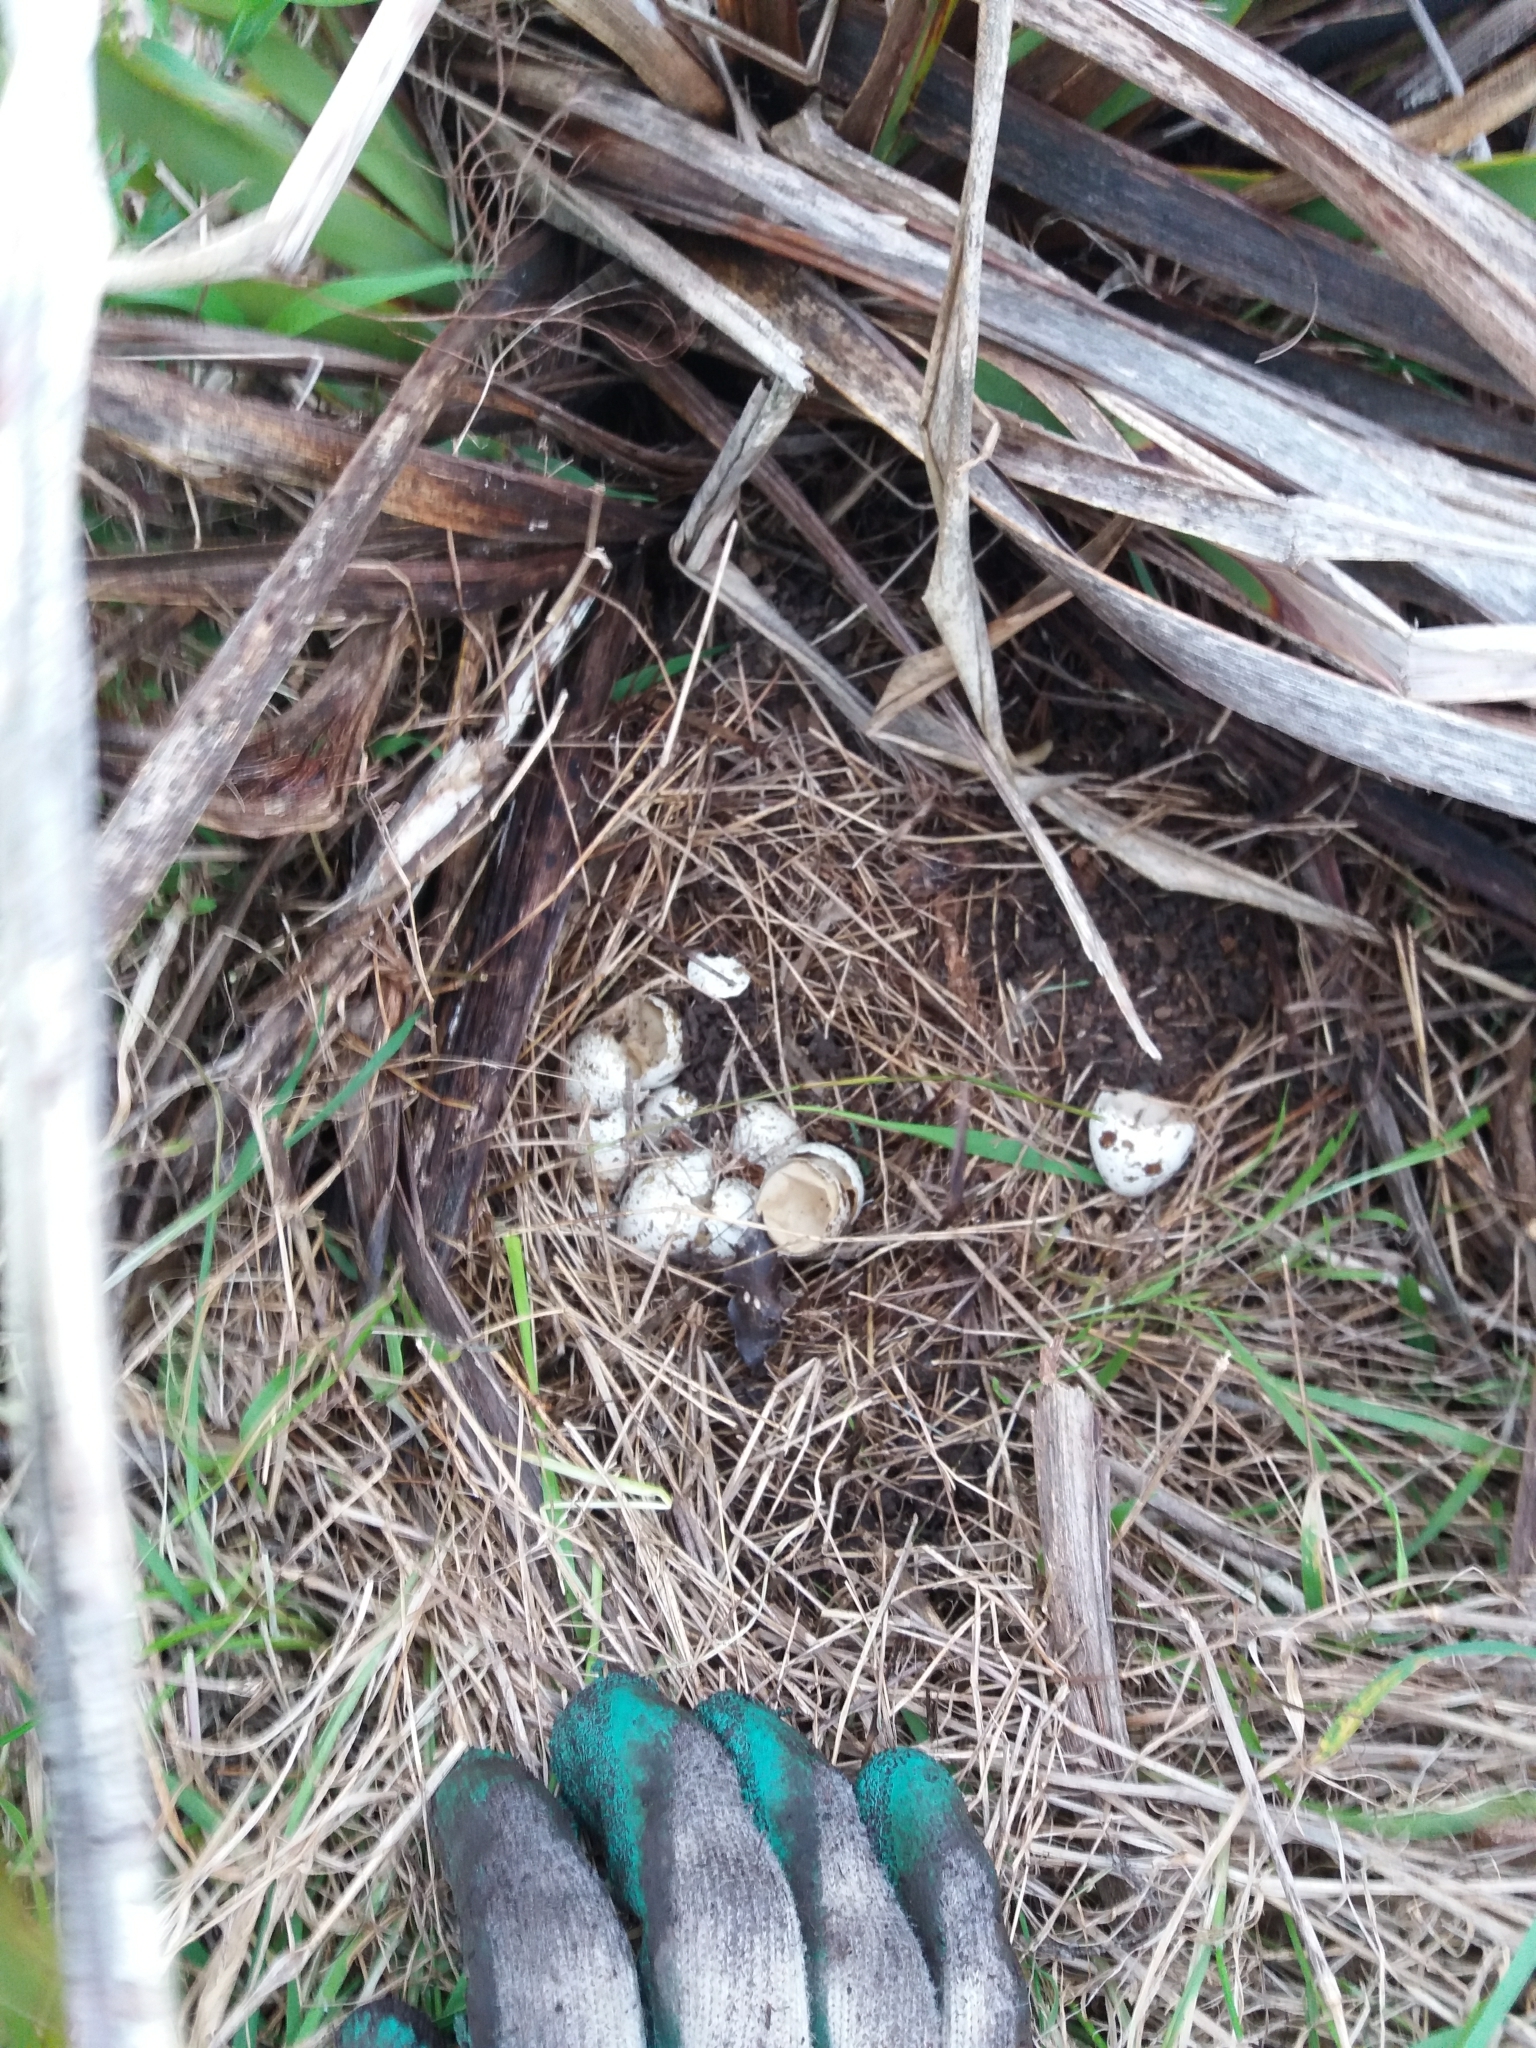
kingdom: Animalia
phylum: Chordata
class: Aves
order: Galliformes
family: Odontophoridae
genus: Callipepla
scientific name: Callipepla californica
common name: California quail
